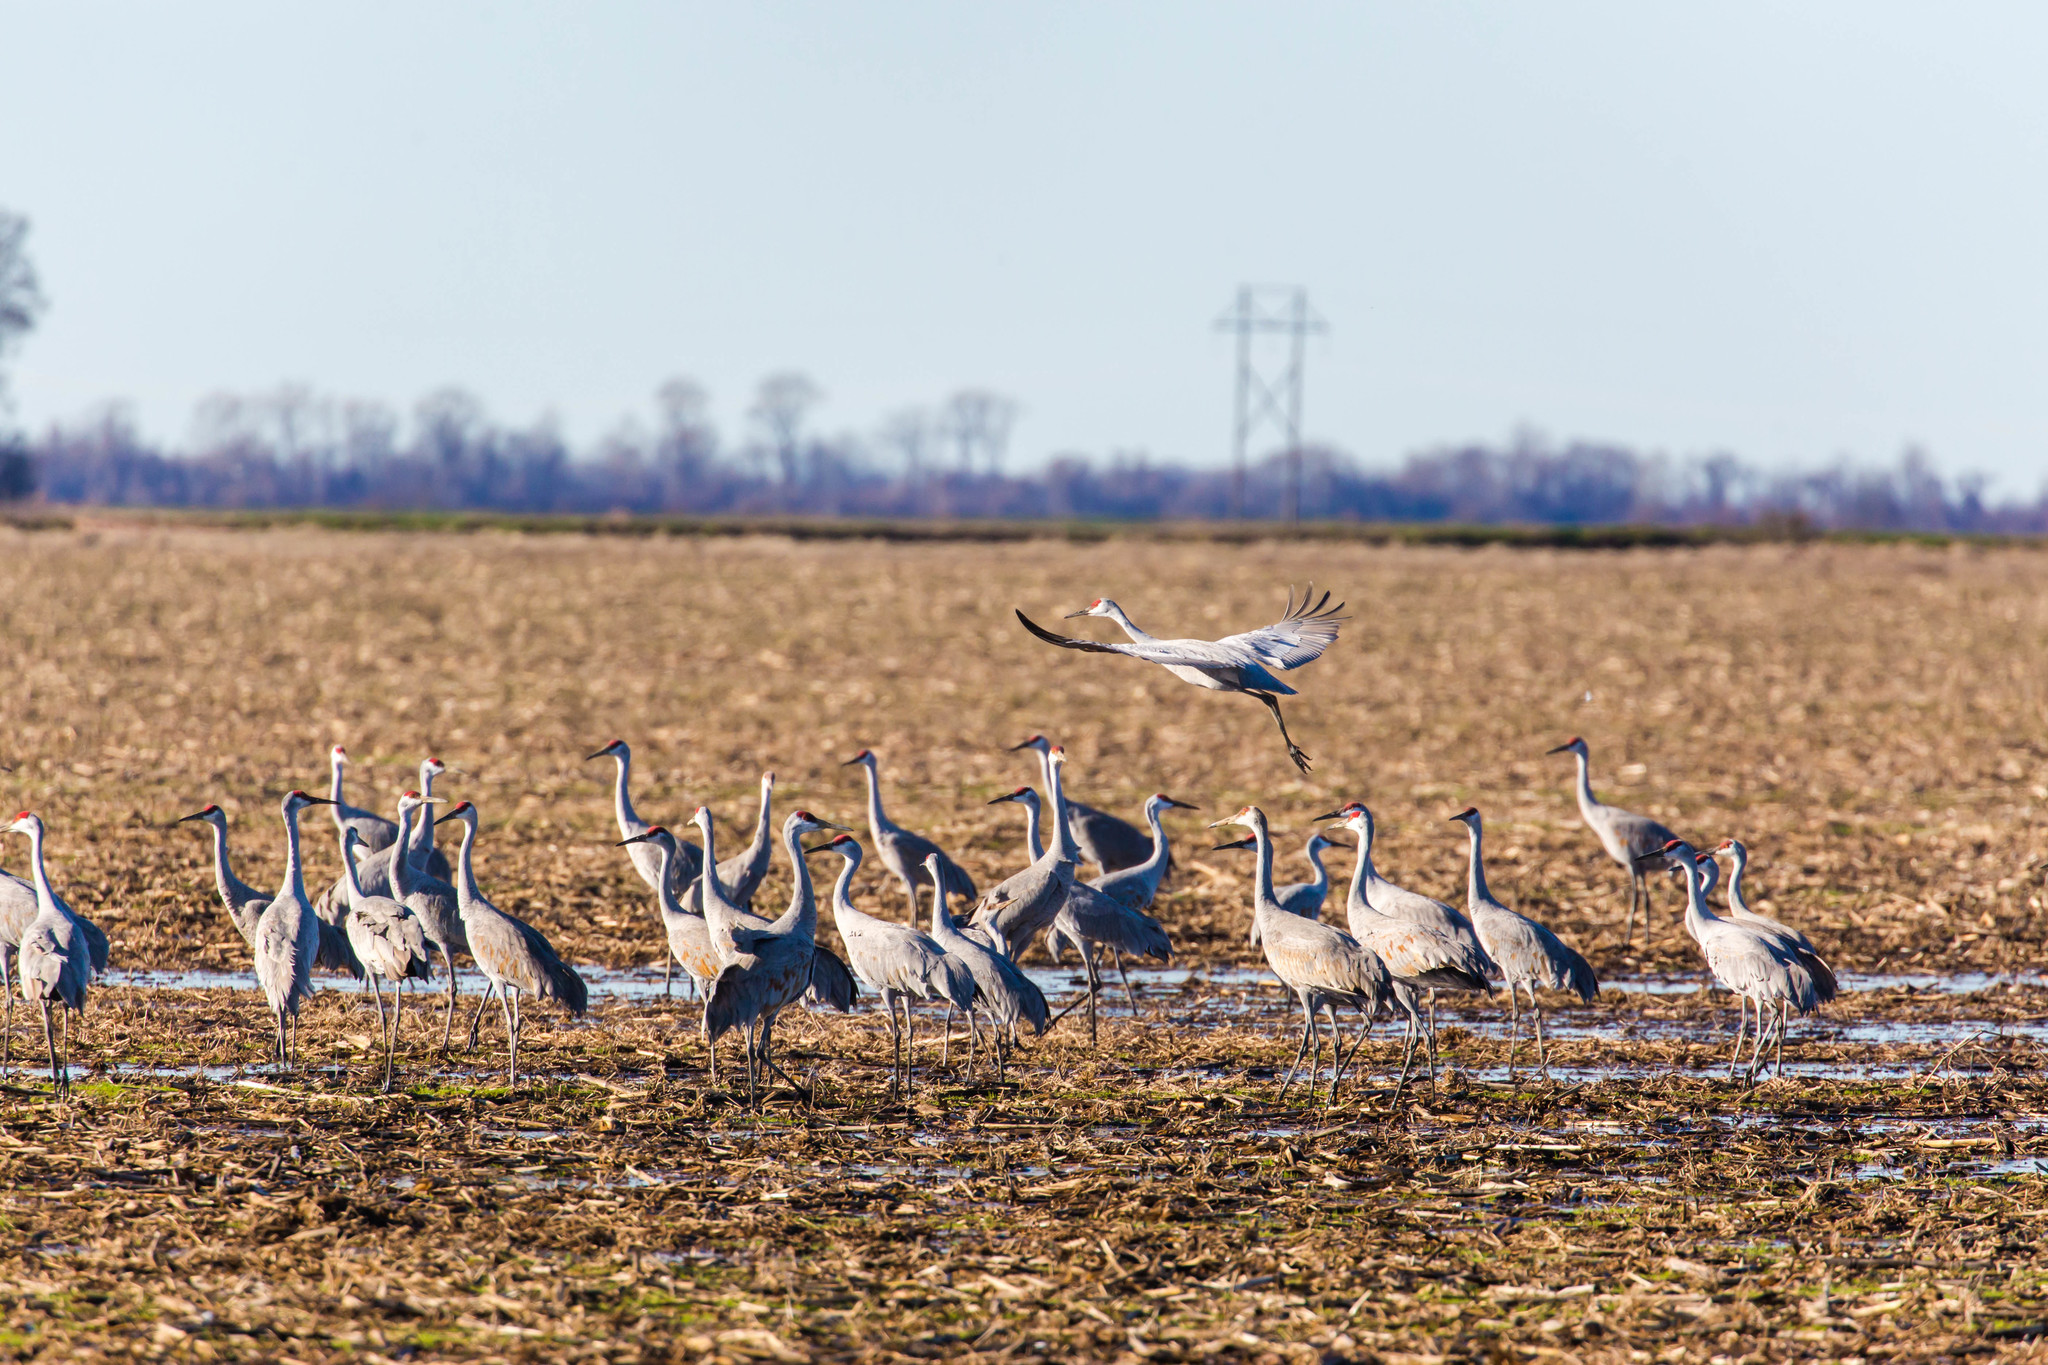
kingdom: Animalia
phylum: Chordata
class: Aves
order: Gruiformes
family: Gruidae
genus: Grus
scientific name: Grus canadensis
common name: Sandhill crane
